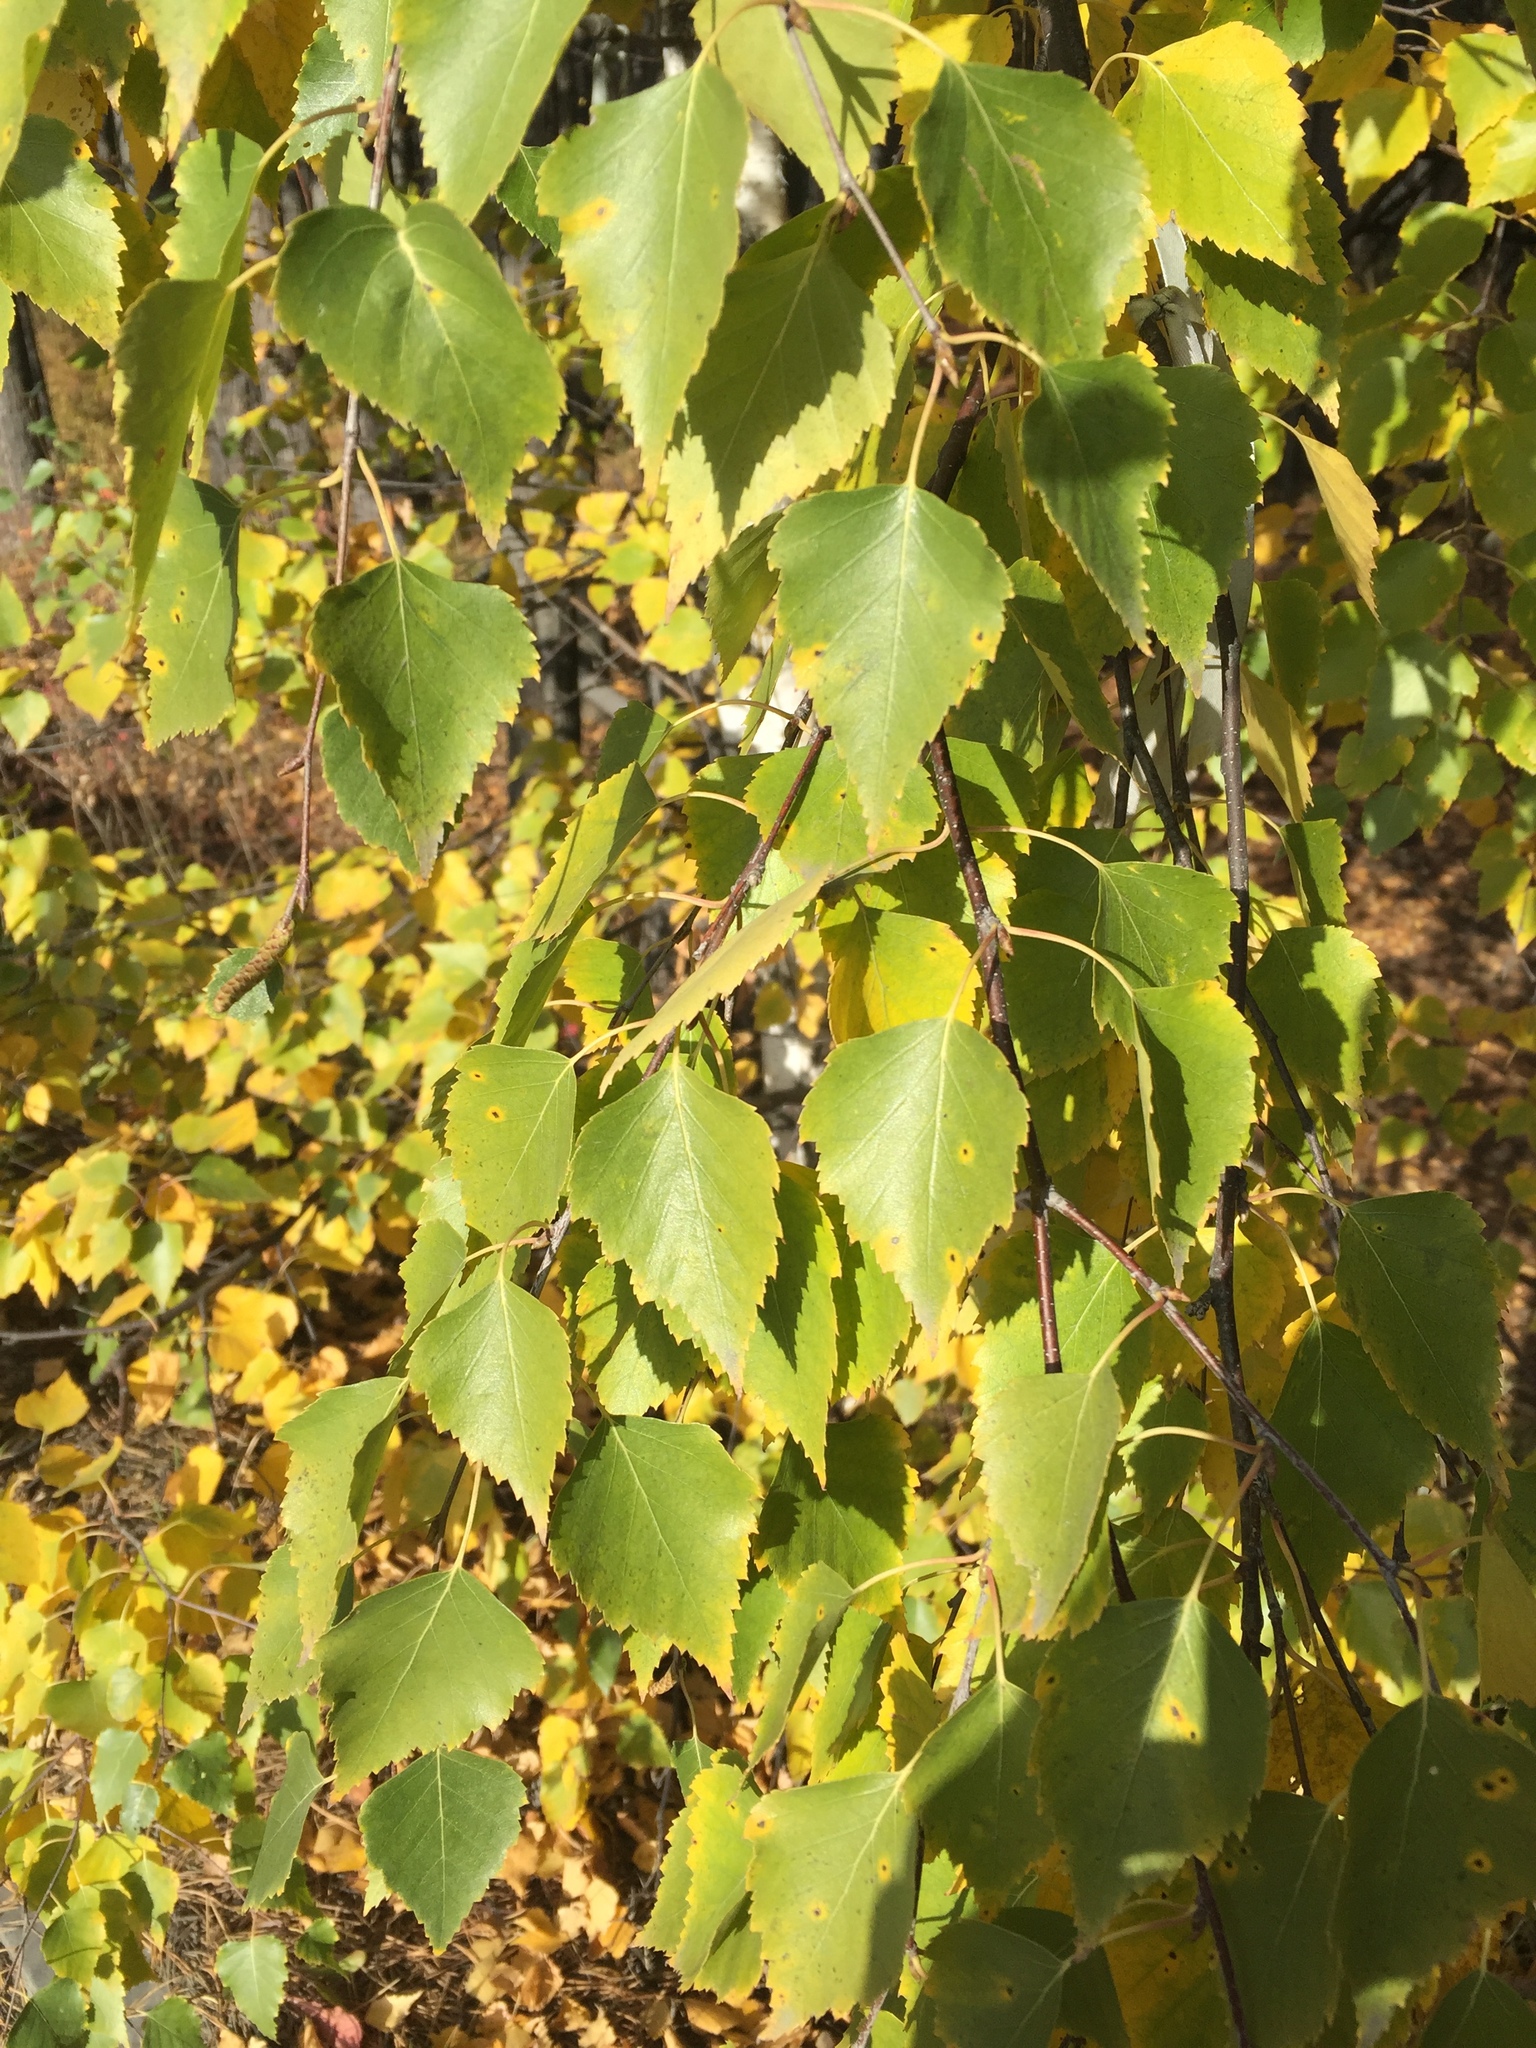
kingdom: Plantae
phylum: Tracheophyta
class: Magnoliopsida
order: Fagales
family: Betulaceae
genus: Betula
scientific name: Betula pendula
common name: Silver birch
